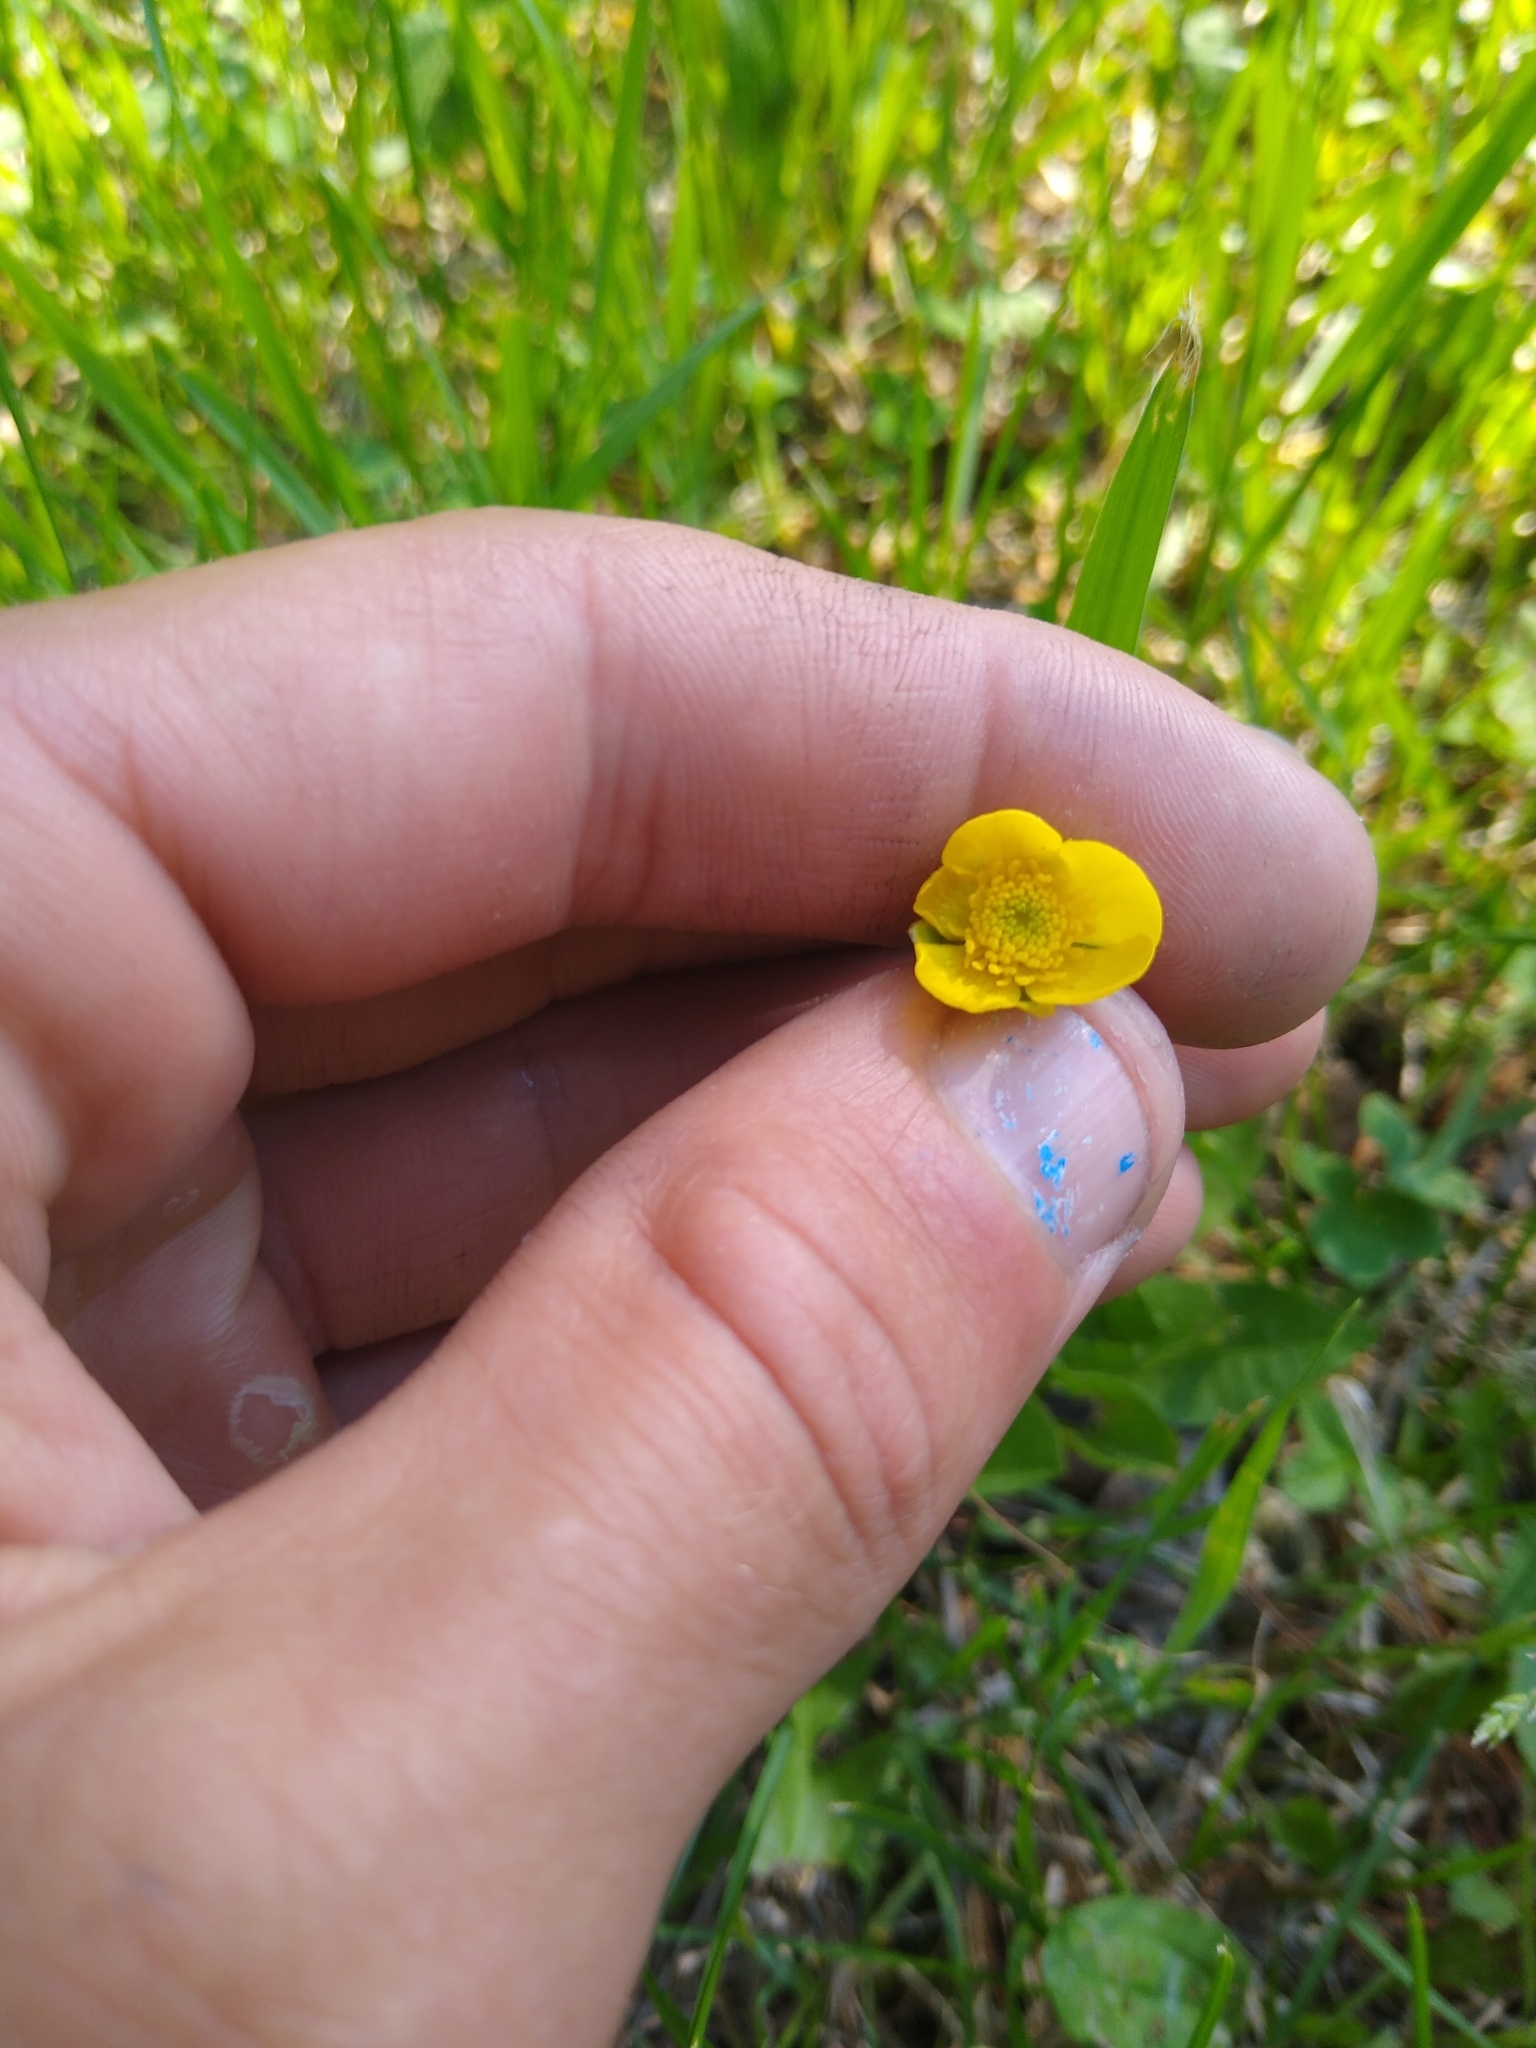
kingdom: Plantae
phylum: Tracheophyta
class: Magnoliopsida
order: Ranunculales
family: Ranunculaceae
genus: Ranunculus
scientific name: Ranunculus acris
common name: Meadow buttercup
